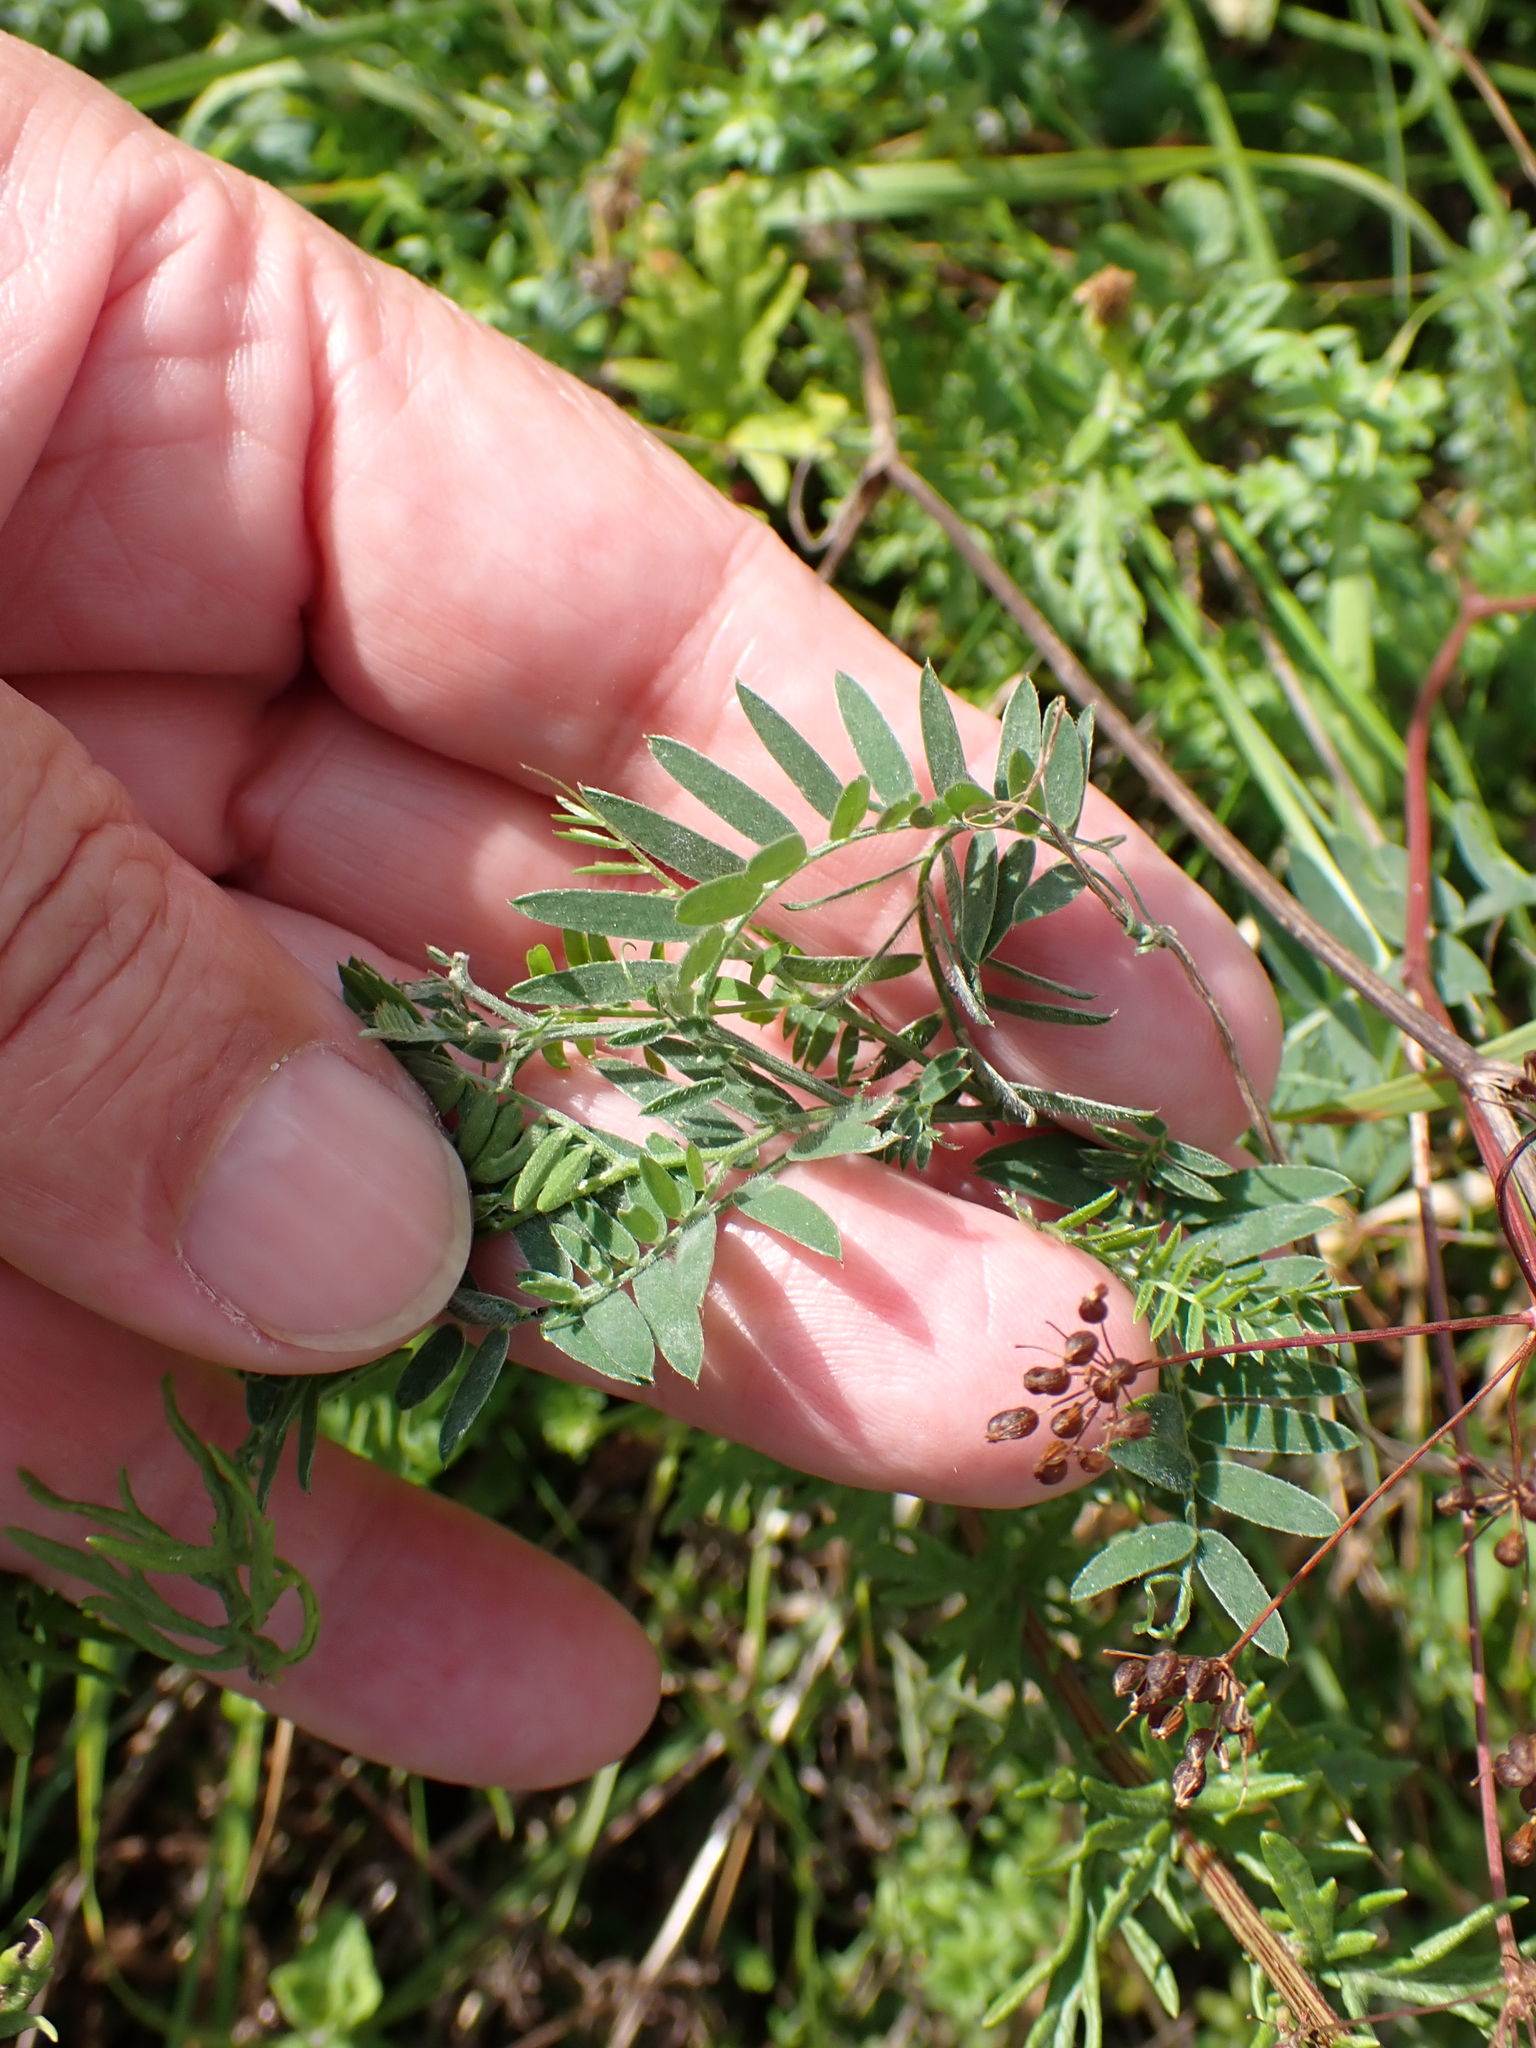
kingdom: Plantae
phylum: Tracheophyta
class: Magnoliopsida
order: Fabales
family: Fabaceae
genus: Vicia
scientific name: Vicia cracca
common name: Bird vetch
